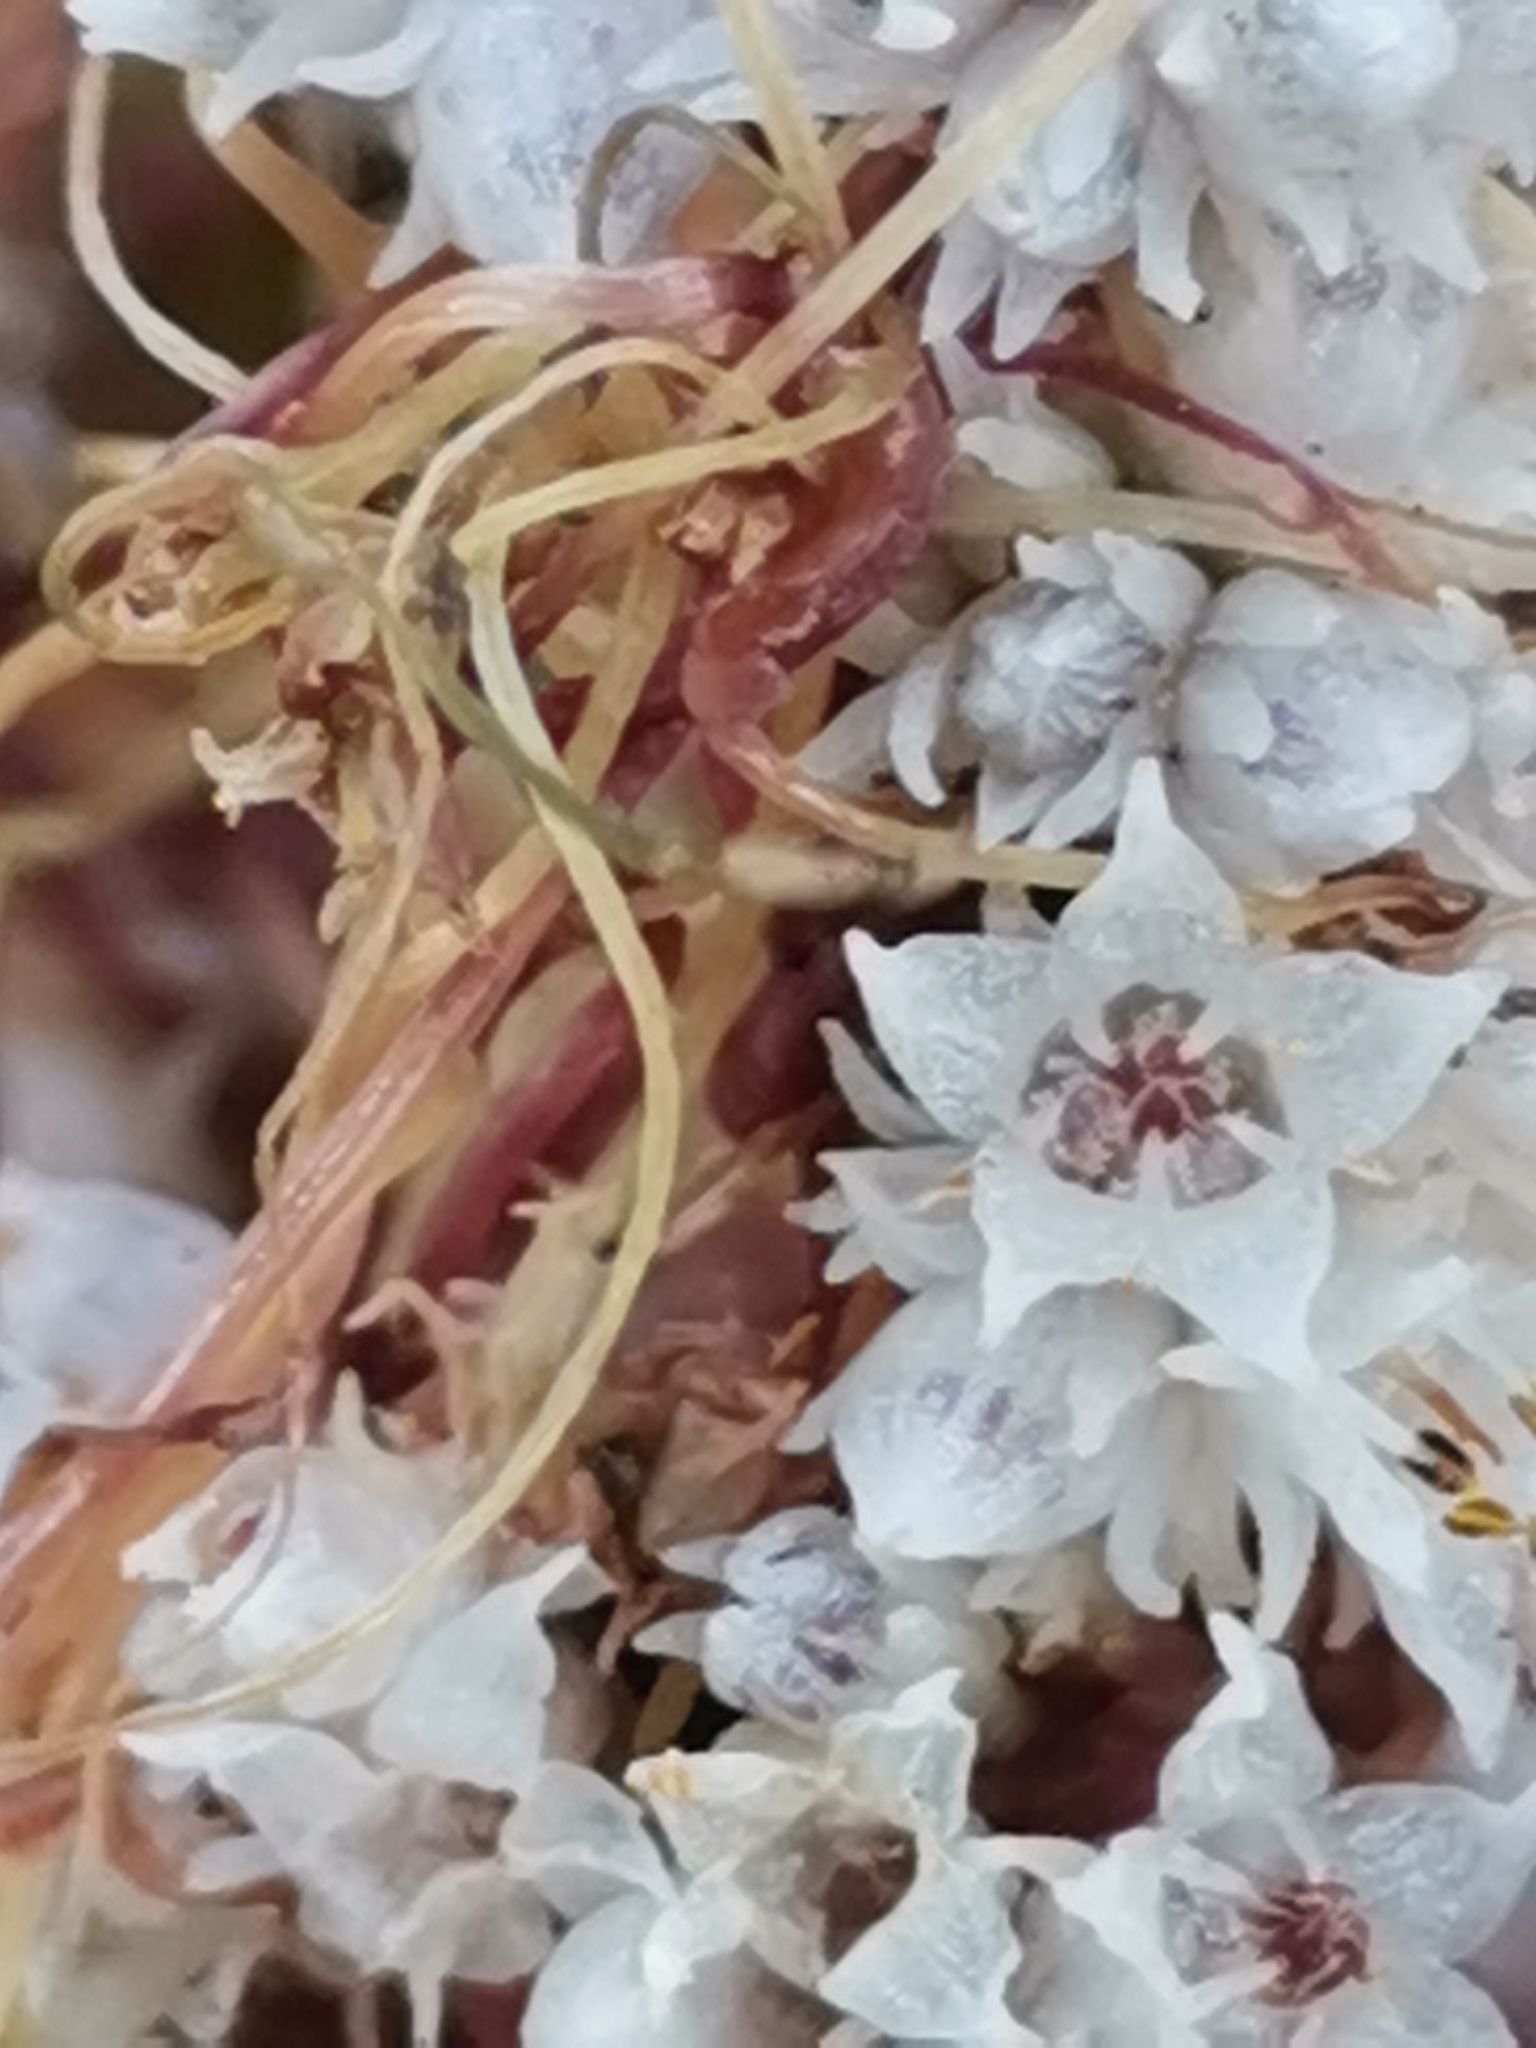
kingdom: Plantae
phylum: Tracheophyta
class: Magnoliopsida
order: Solanales
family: Convolvulaceae
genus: Cuscuta
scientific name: Cuscuta epithymum
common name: Clover dodder
